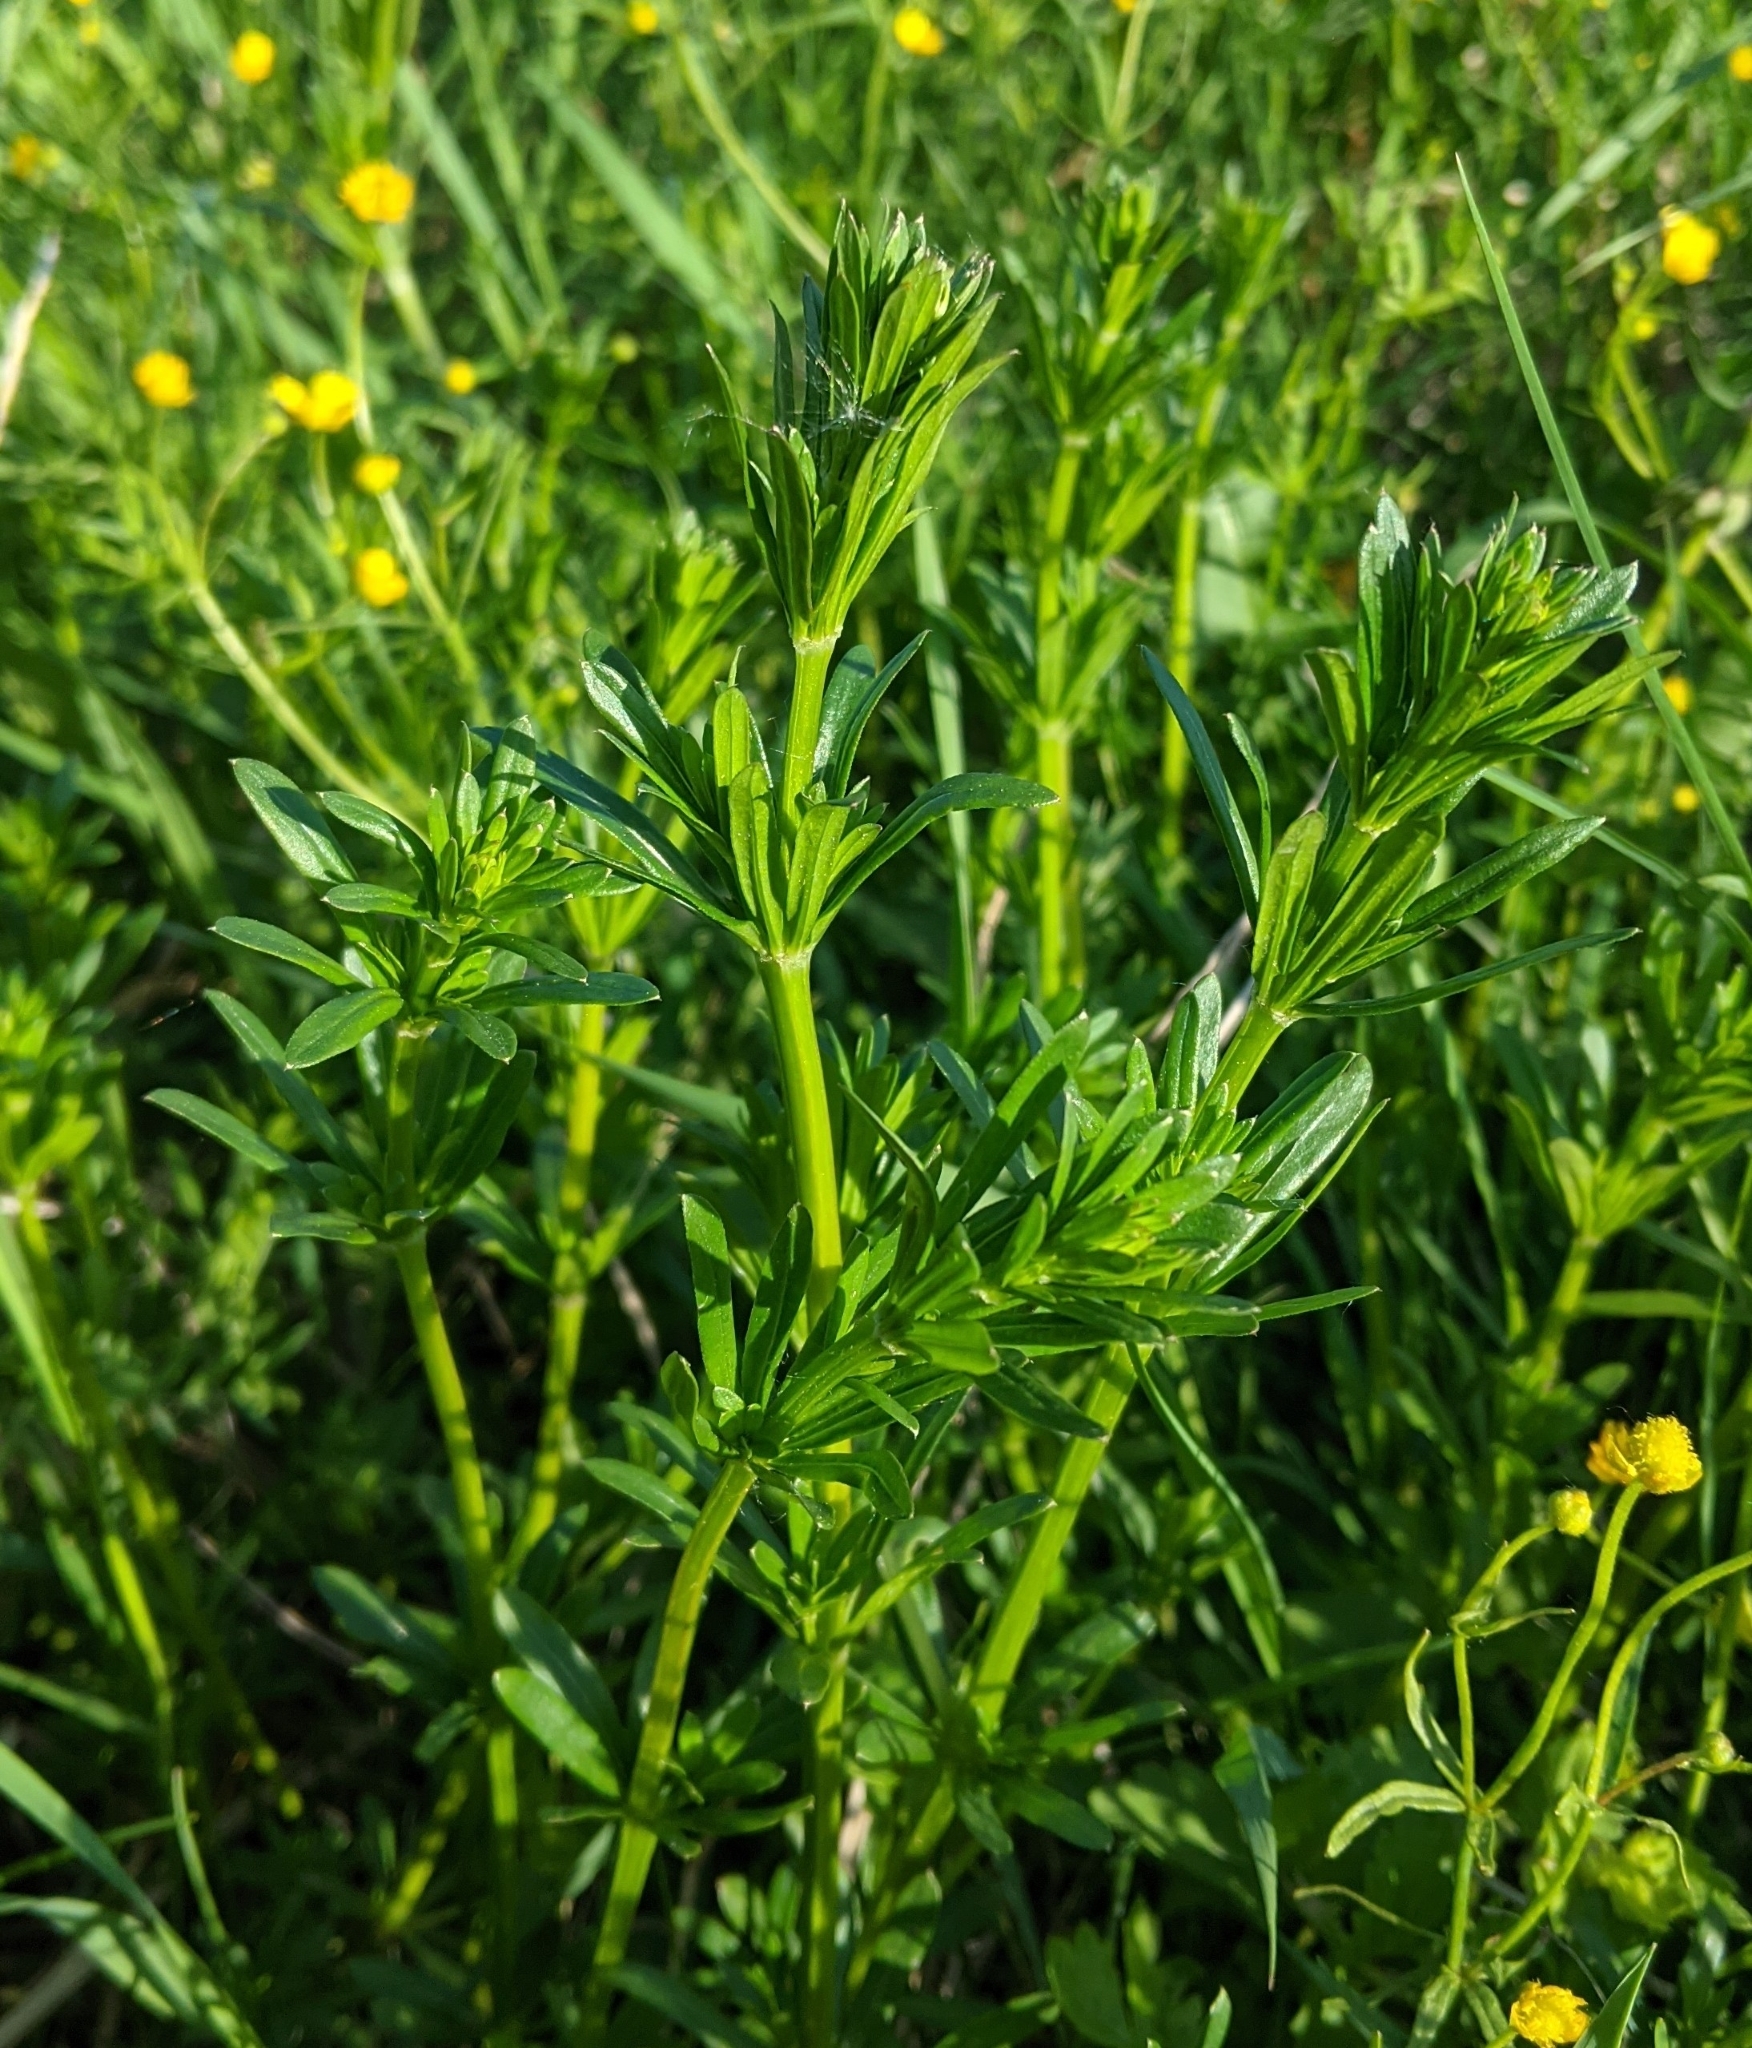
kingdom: Plantae
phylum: Tracheophyta
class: Magnoliopsida
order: Gentianales
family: Rubiaceae
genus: Galium
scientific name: Galium mollugo
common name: Hedge bedstraw
